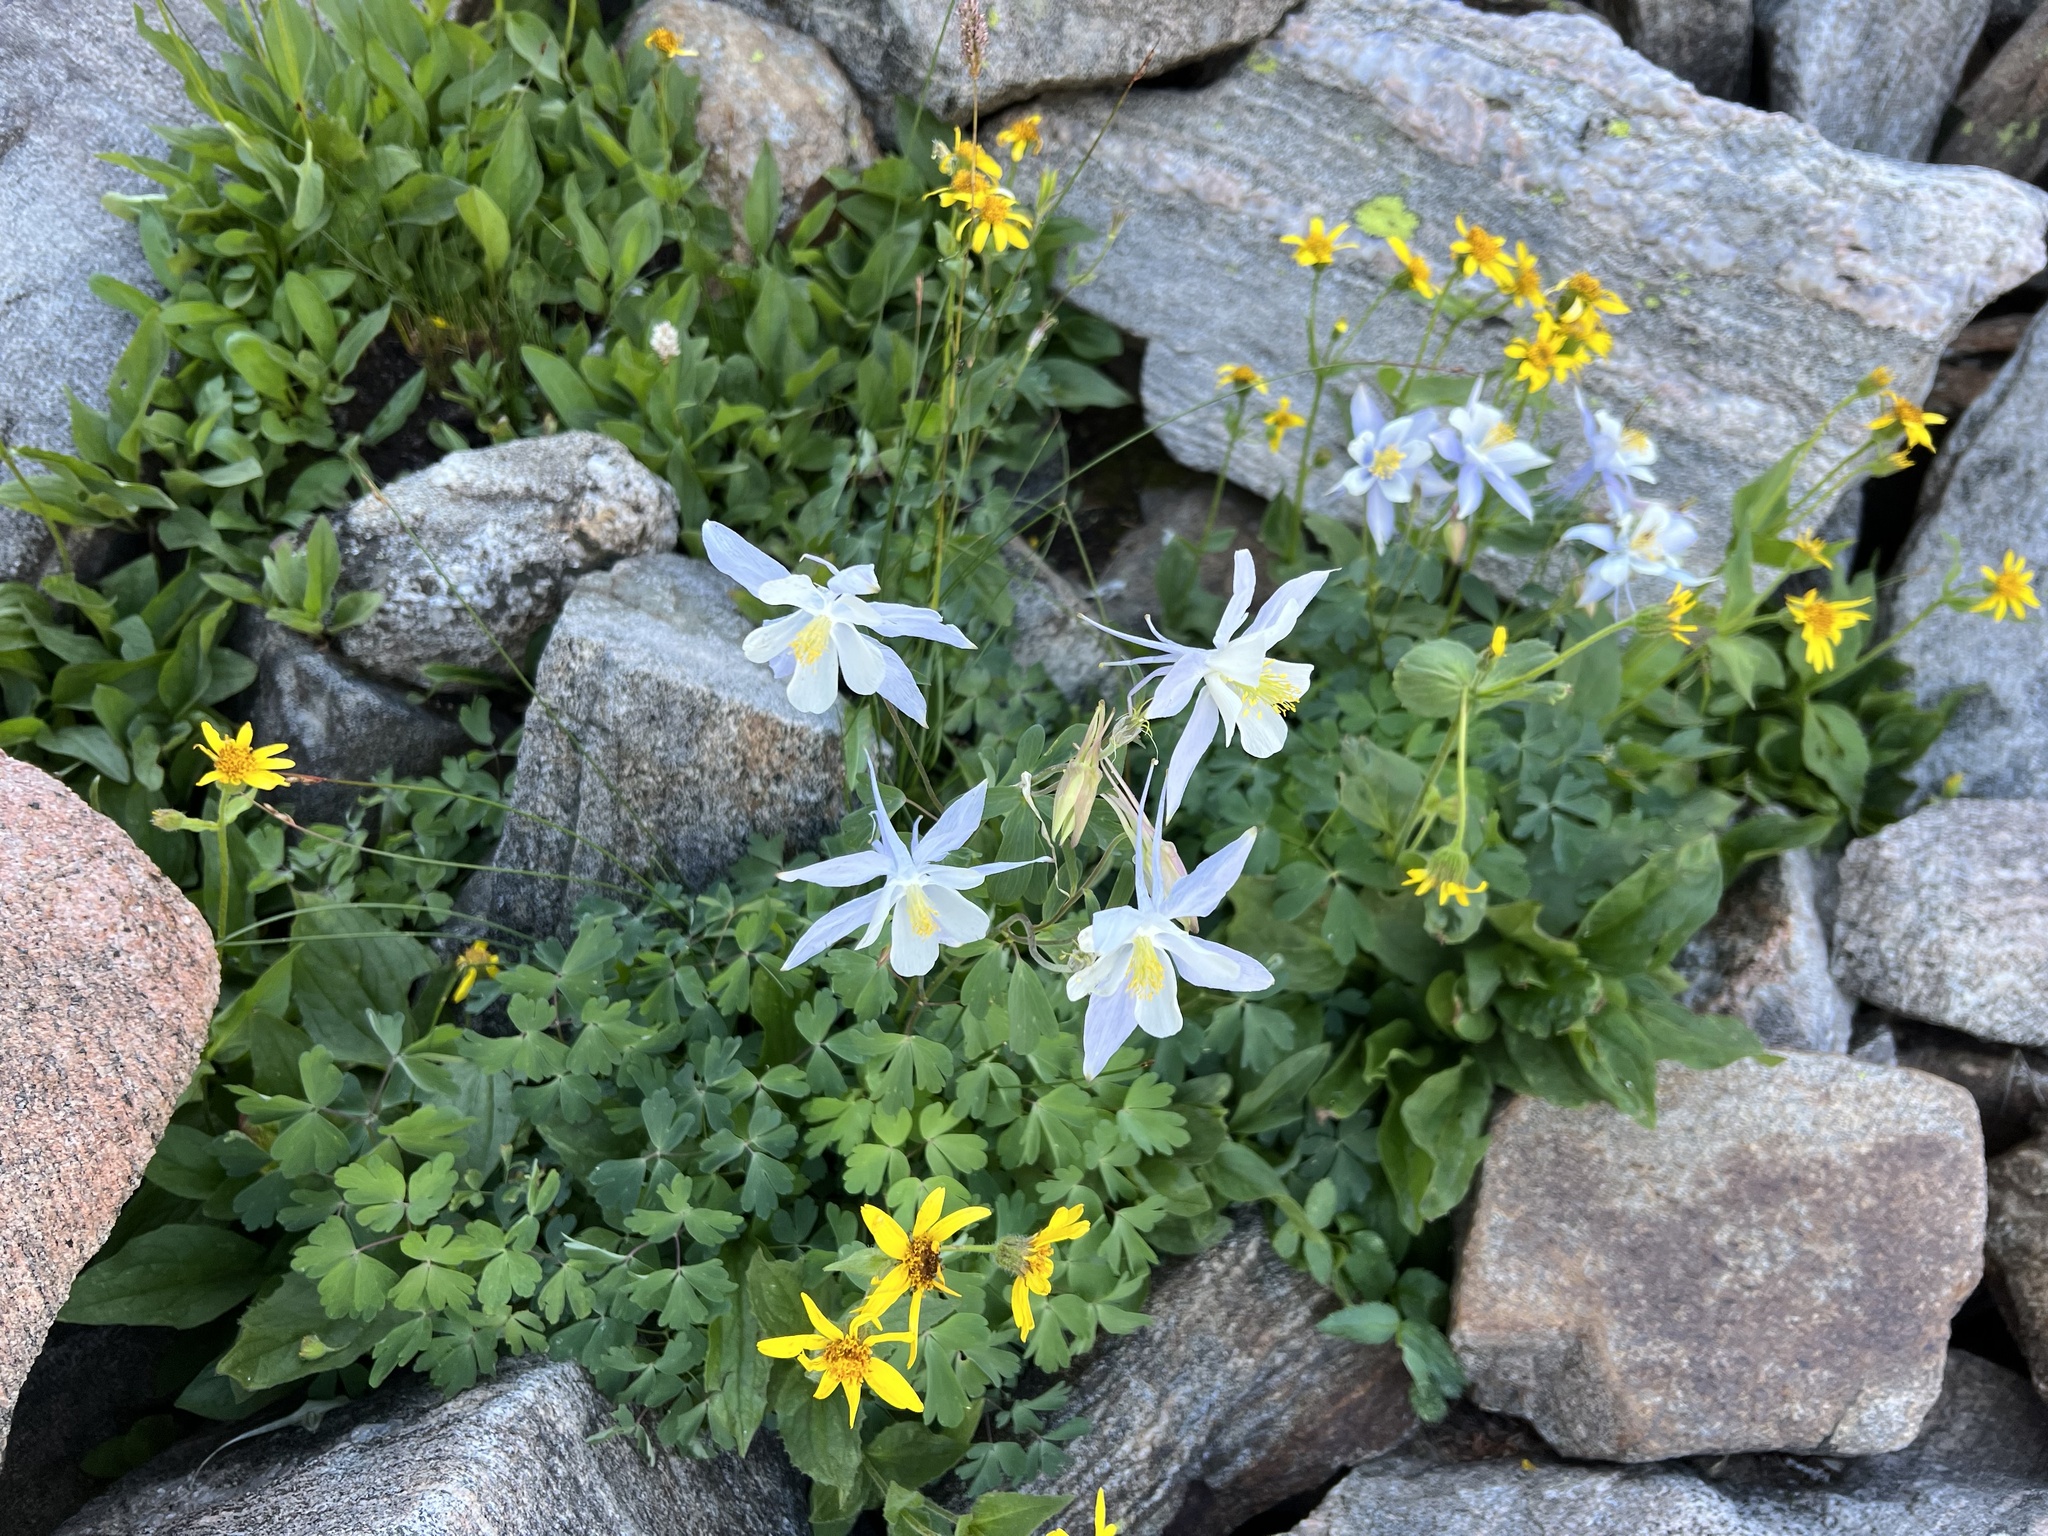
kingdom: Plantae
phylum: Tracheophyta
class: Magnoliopsida
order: Ranunculales
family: Ranunculaceae
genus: Aquilegia
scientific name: Aquilegia coerulea
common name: Rocky mountain columbine
